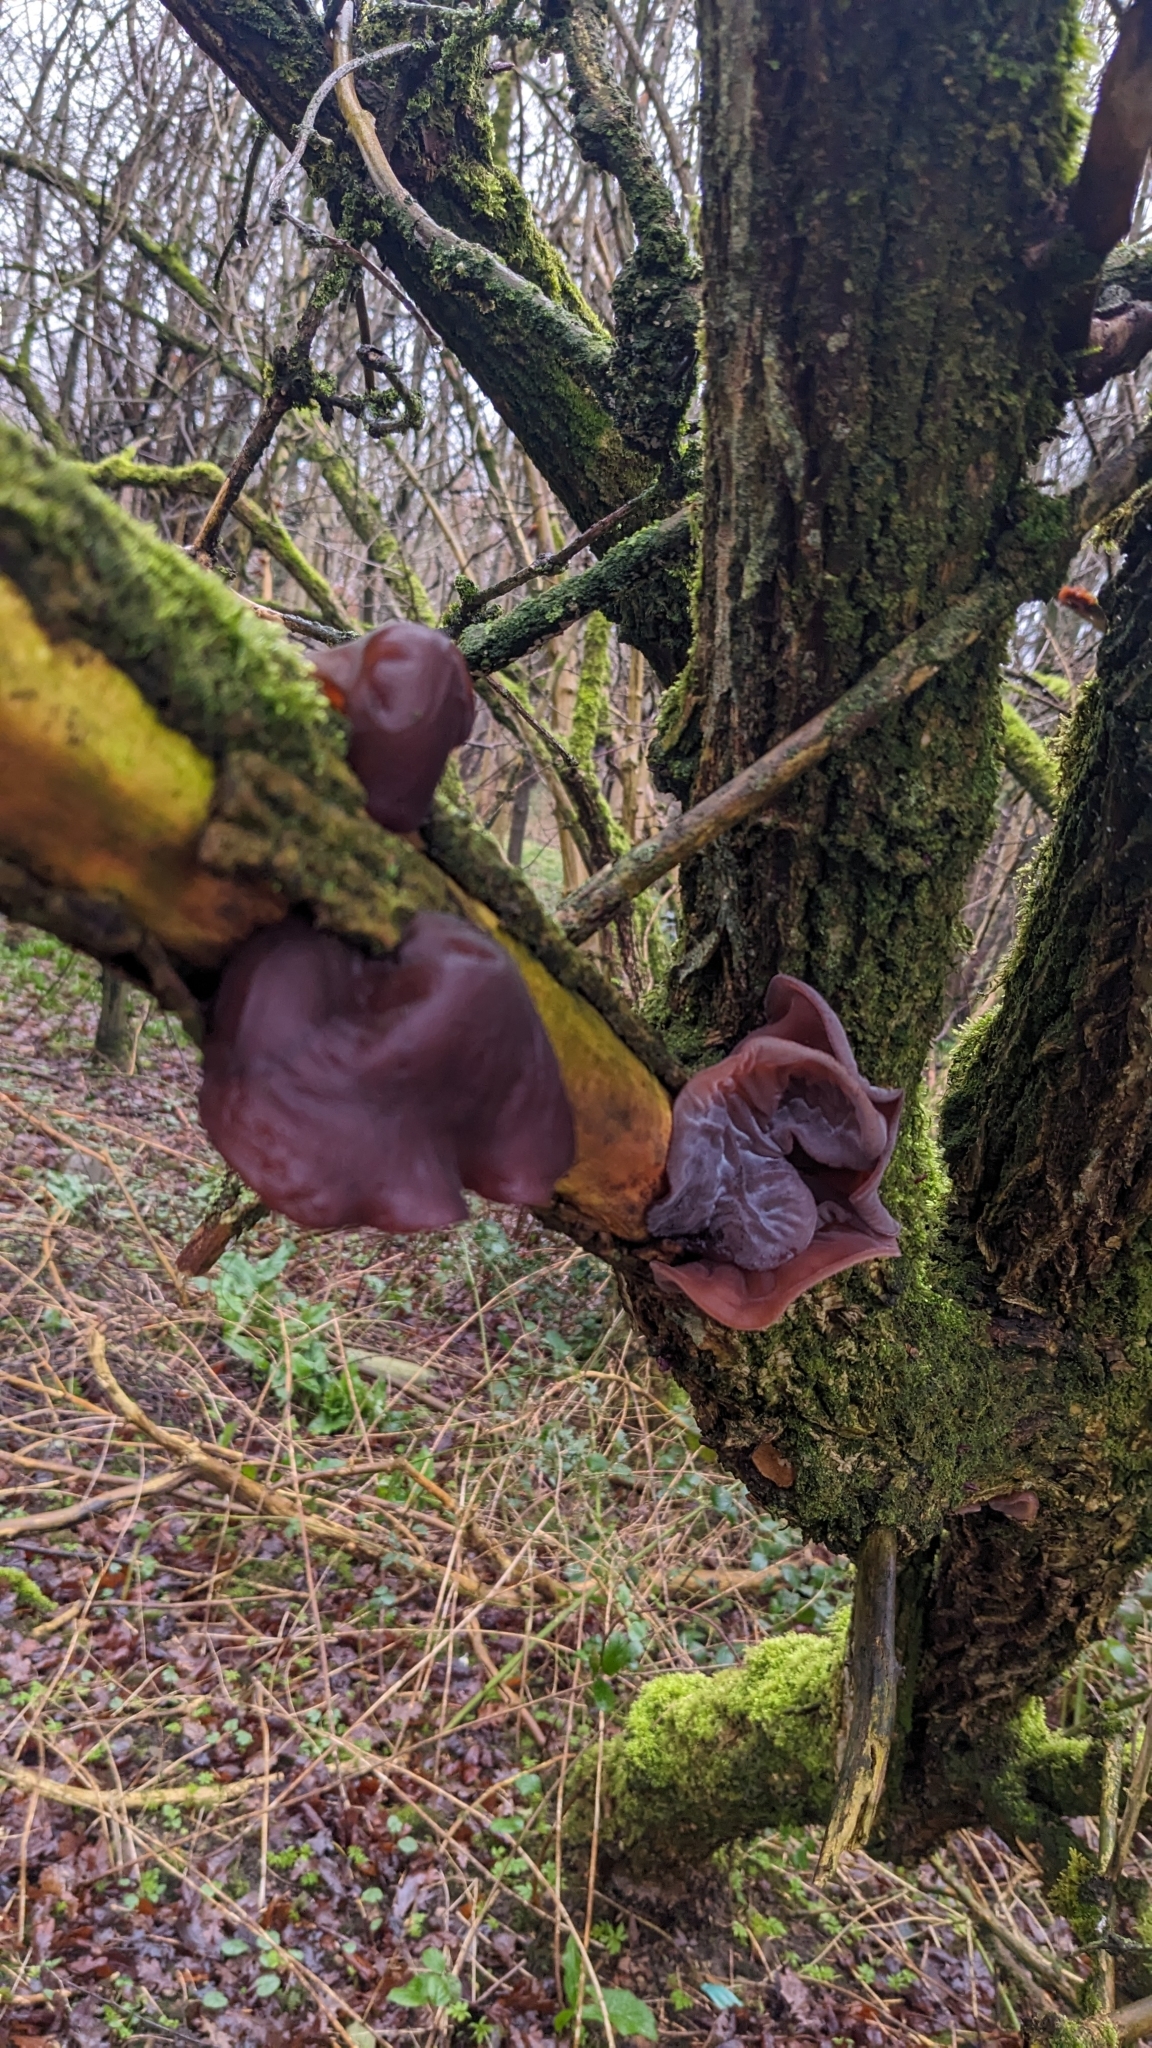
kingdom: Fungi
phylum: Basidiomycota
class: Agaricomycetes
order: Auriculariales
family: Auriculariaceae
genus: Auricularia
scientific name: Auricularia auricula-judae
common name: Jelly ear
